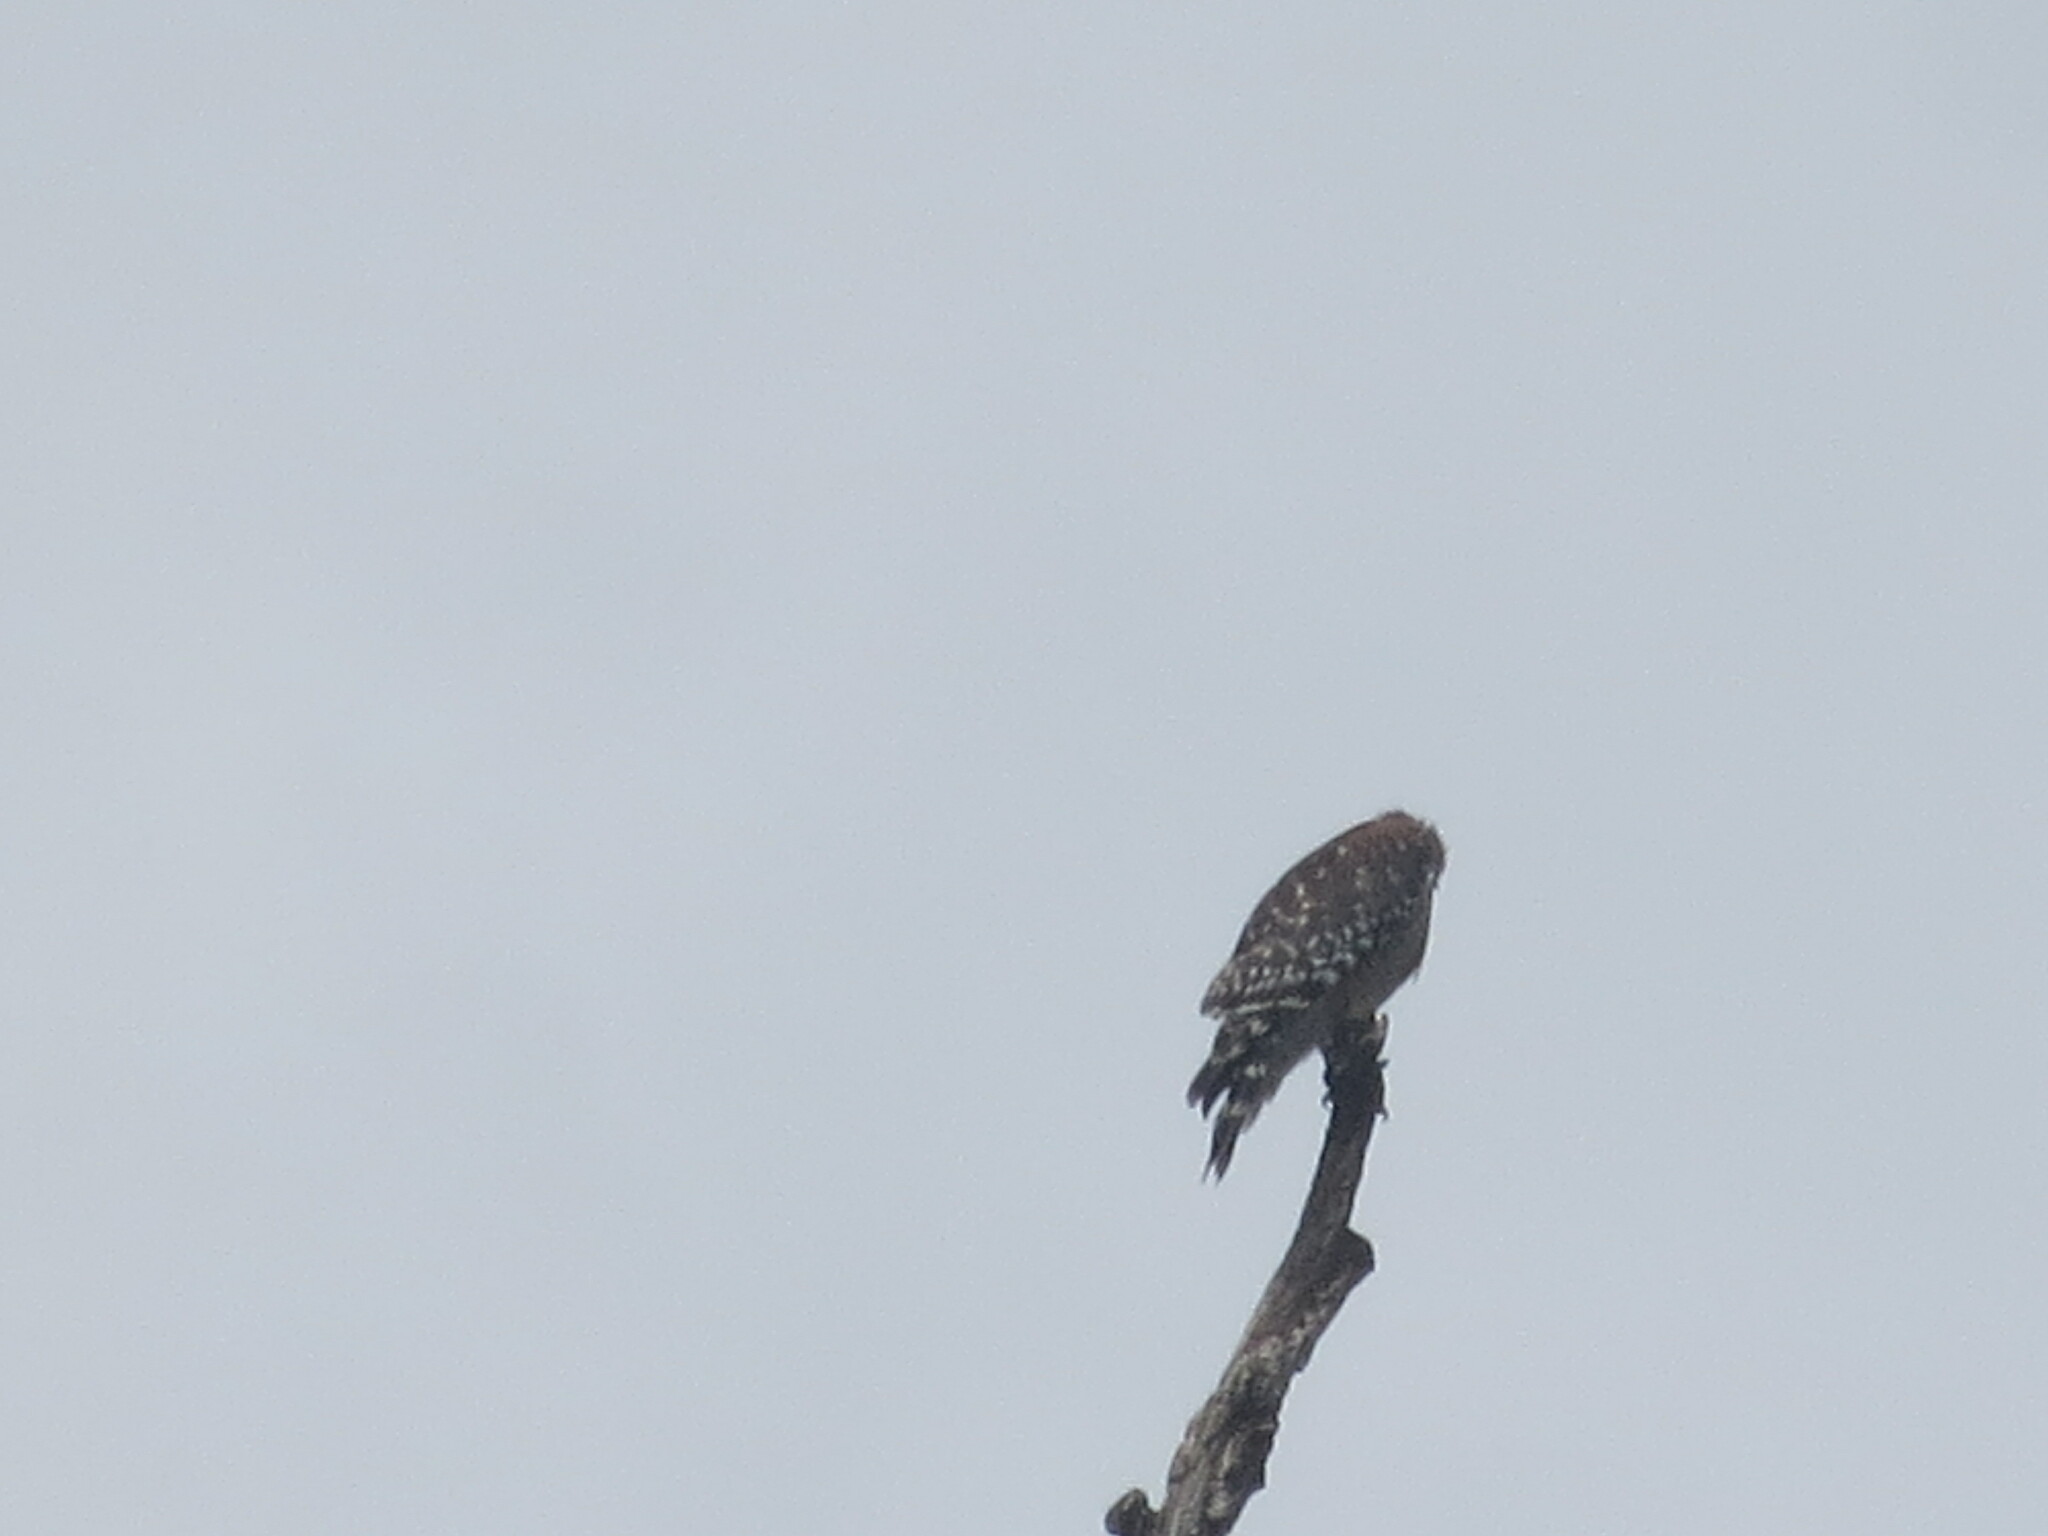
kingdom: Animalia
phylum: Chordata
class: Aves
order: Accipitriformes
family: Accipitridae
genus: Buteo
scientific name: Buteo lineatus
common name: Red-shouldered hawk
